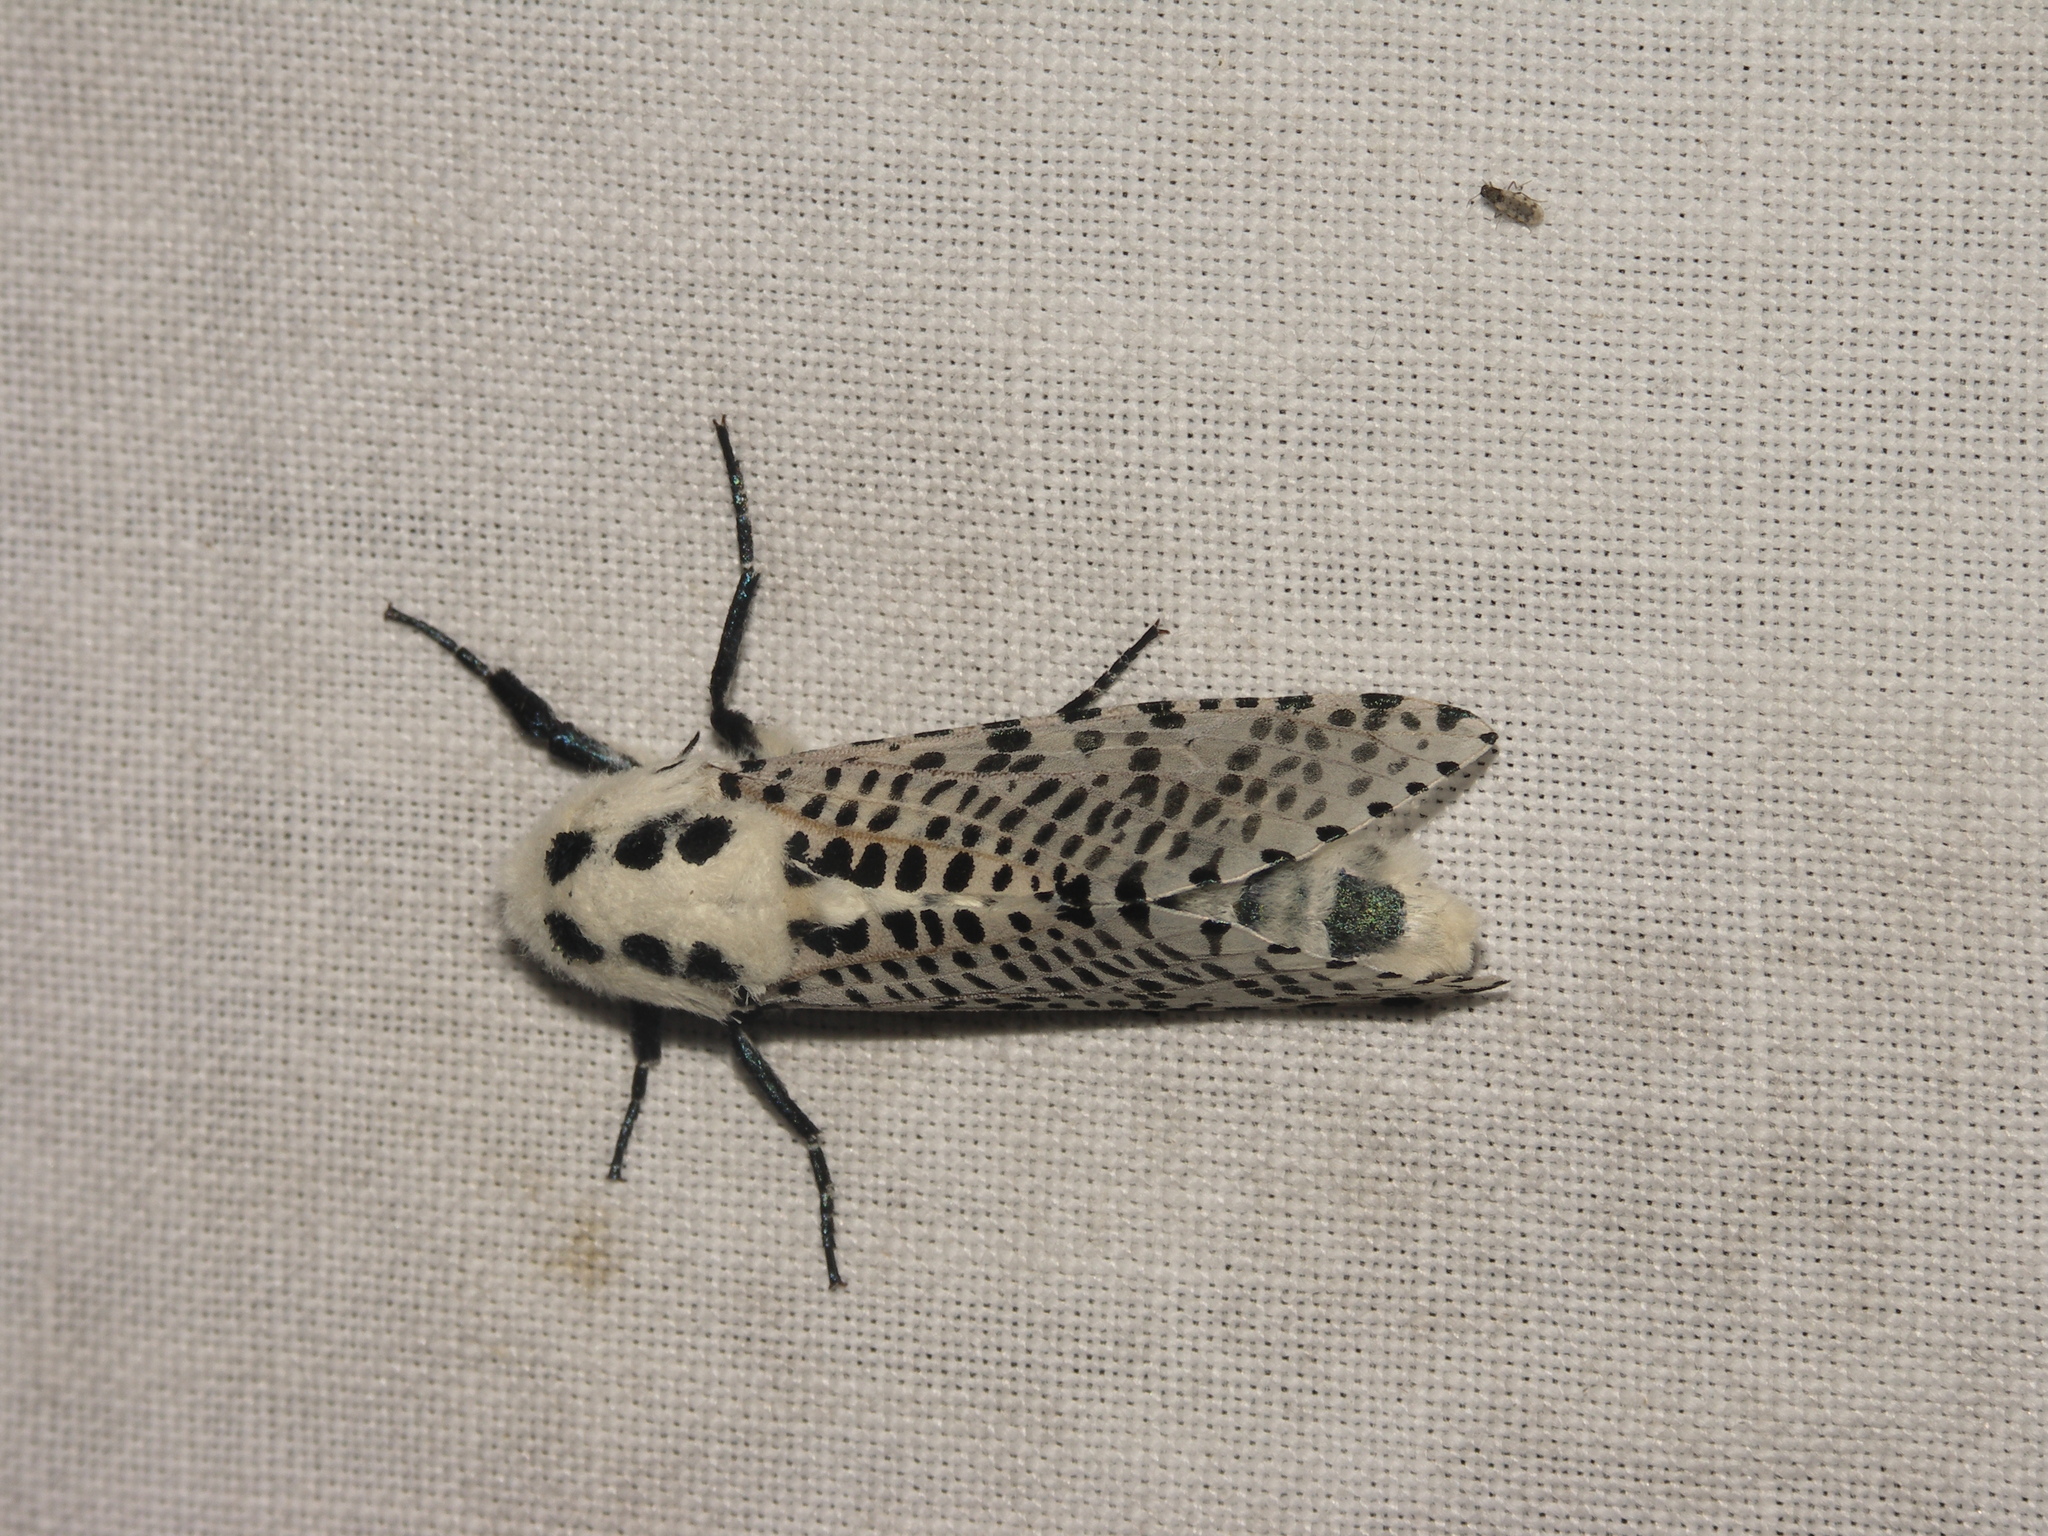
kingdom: Animalia
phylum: Arthropoda
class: Insecta
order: Lepidoptera
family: Cossidae
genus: Zeuzera
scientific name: Zeuzera pyrina
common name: Leopard moth
